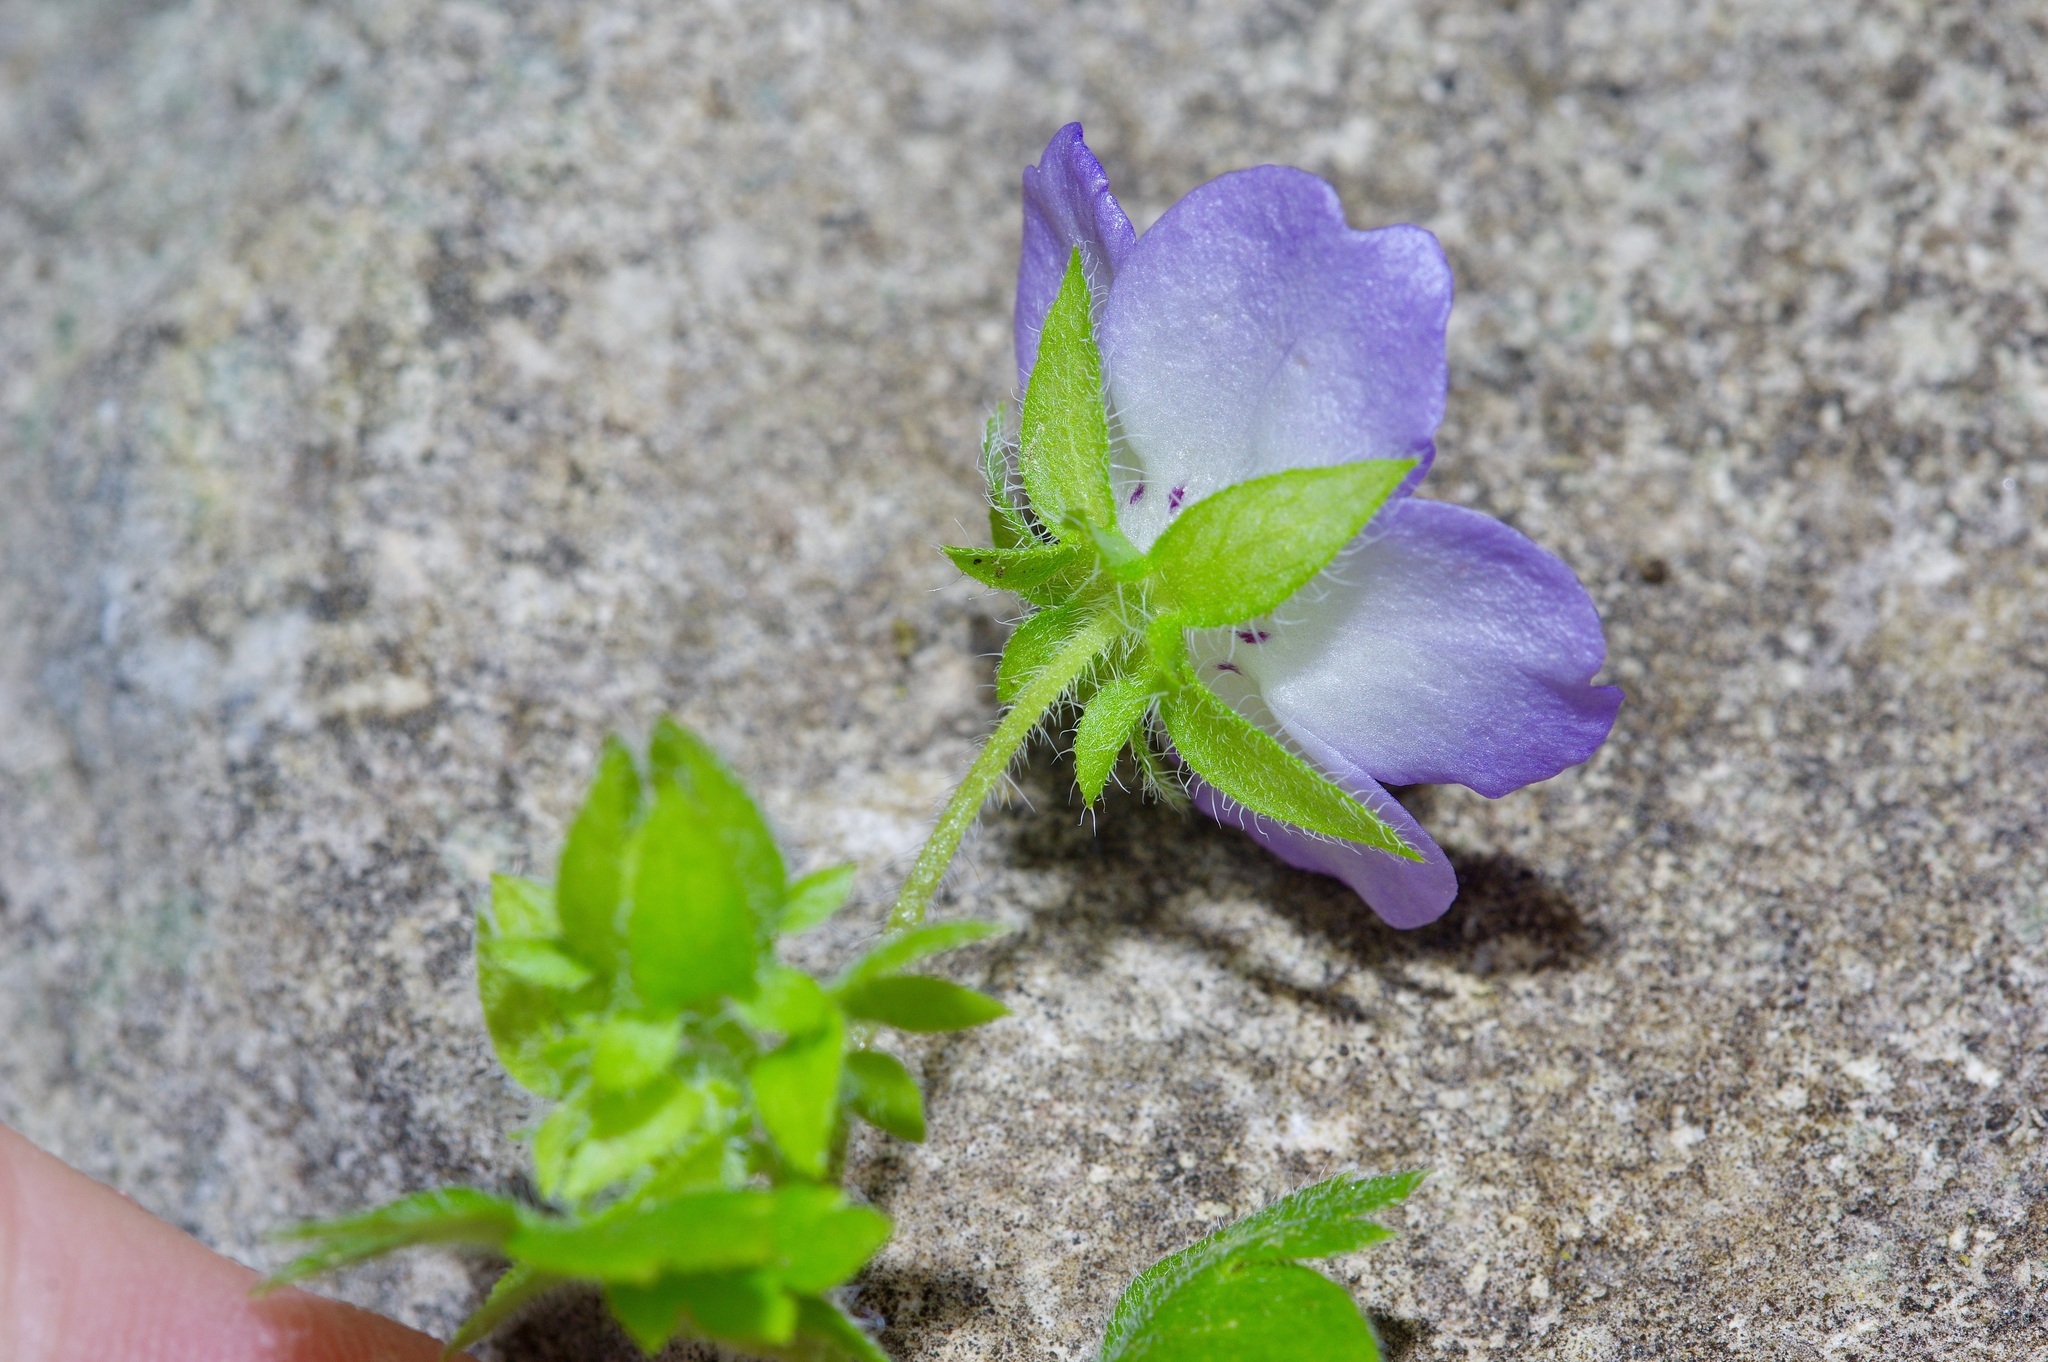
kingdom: Plantae
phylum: Tracheophyta
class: Magnoliopsida
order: Boraginales
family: Hydrophyllaceae
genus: Nemophila
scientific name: Nemophila phacelioides
